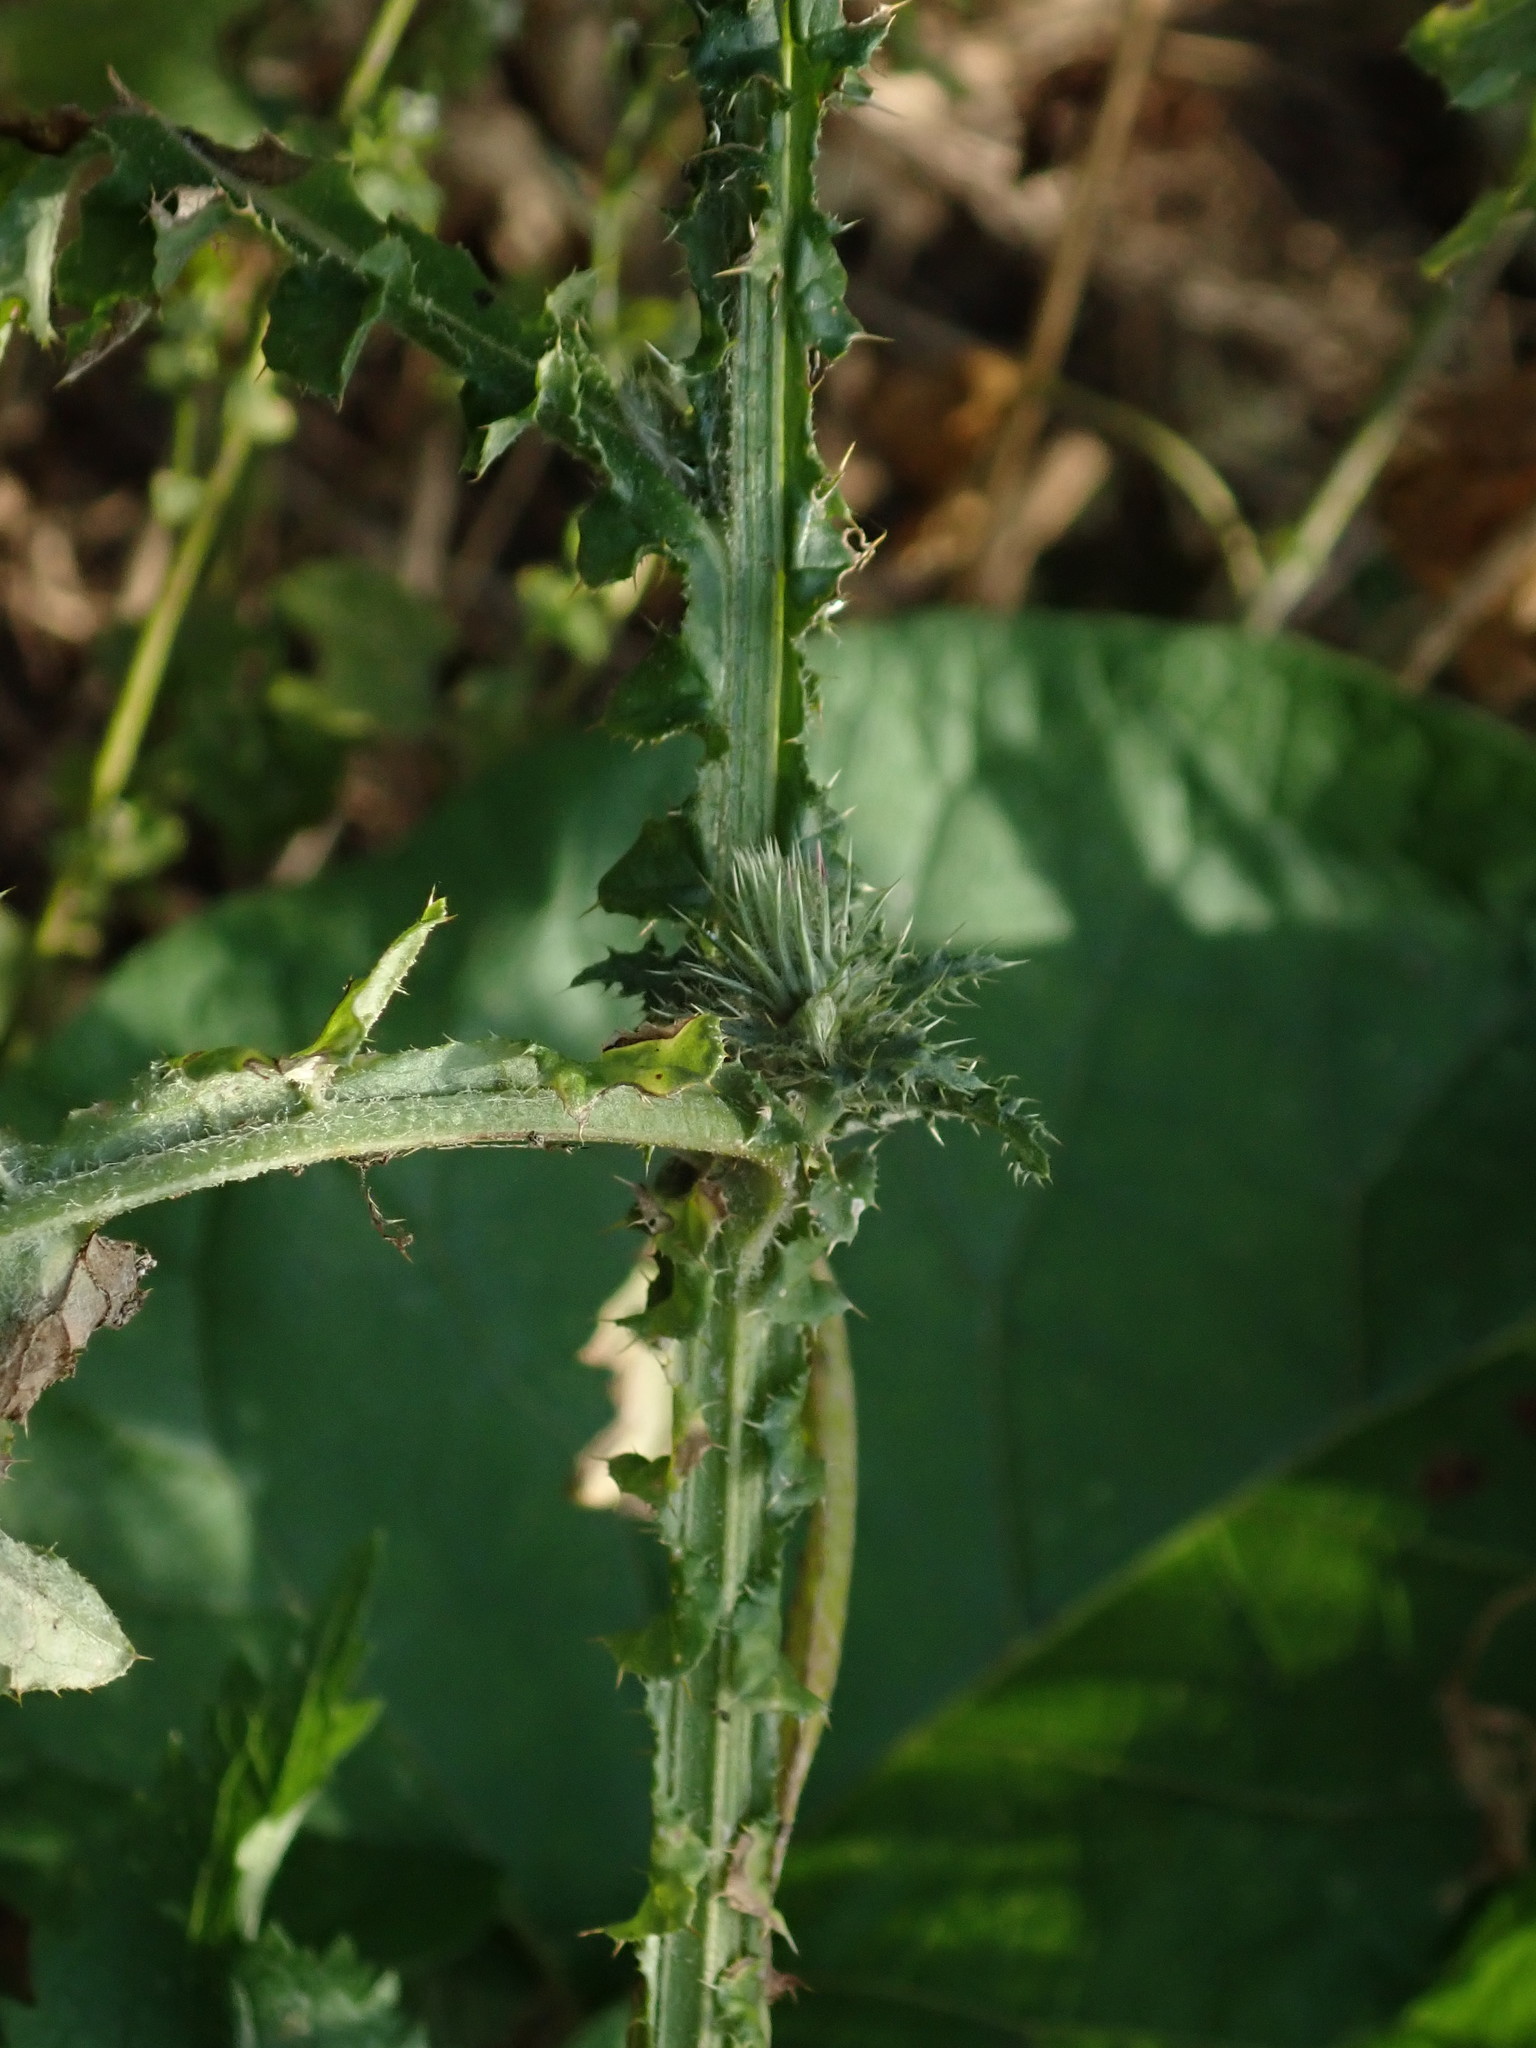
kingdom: Plantae
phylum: Tracheophyta
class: Magnoliopsida
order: Asterales
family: Asteraceae
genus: Carduus
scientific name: Carduus crispus
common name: Welted thistle
